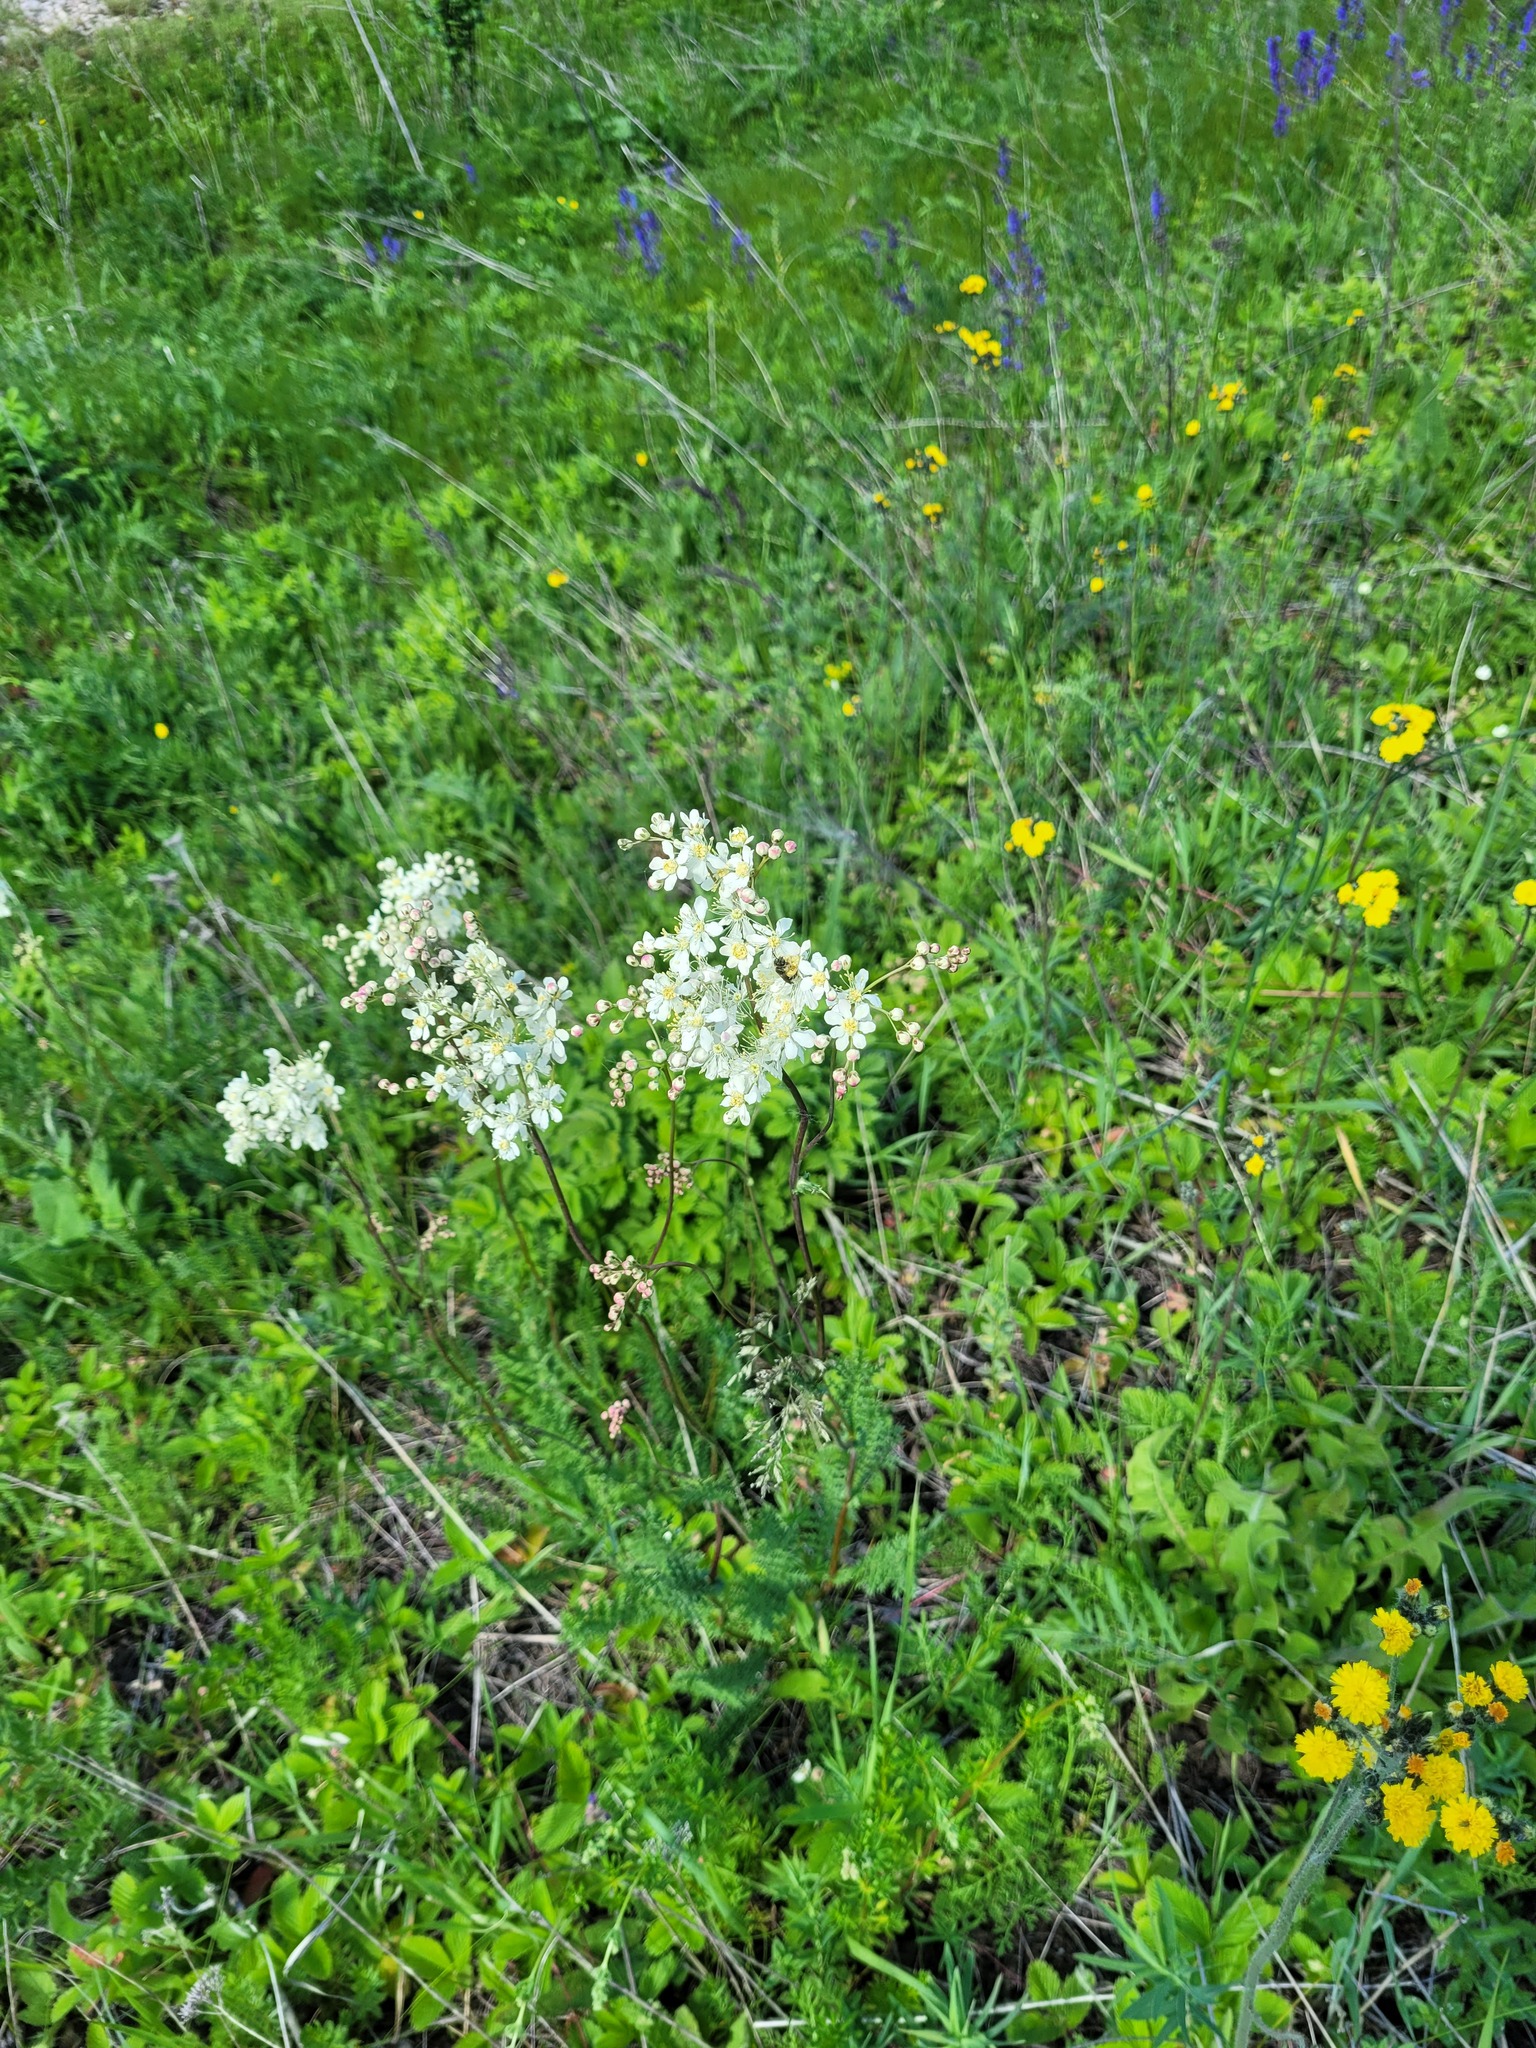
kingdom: Plantae
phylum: Tracheophyta
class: Magnoliopsida
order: Rosales
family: Rosaceae
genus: Filipendula
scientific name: Filipendula vulgaris
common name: Dropwort
